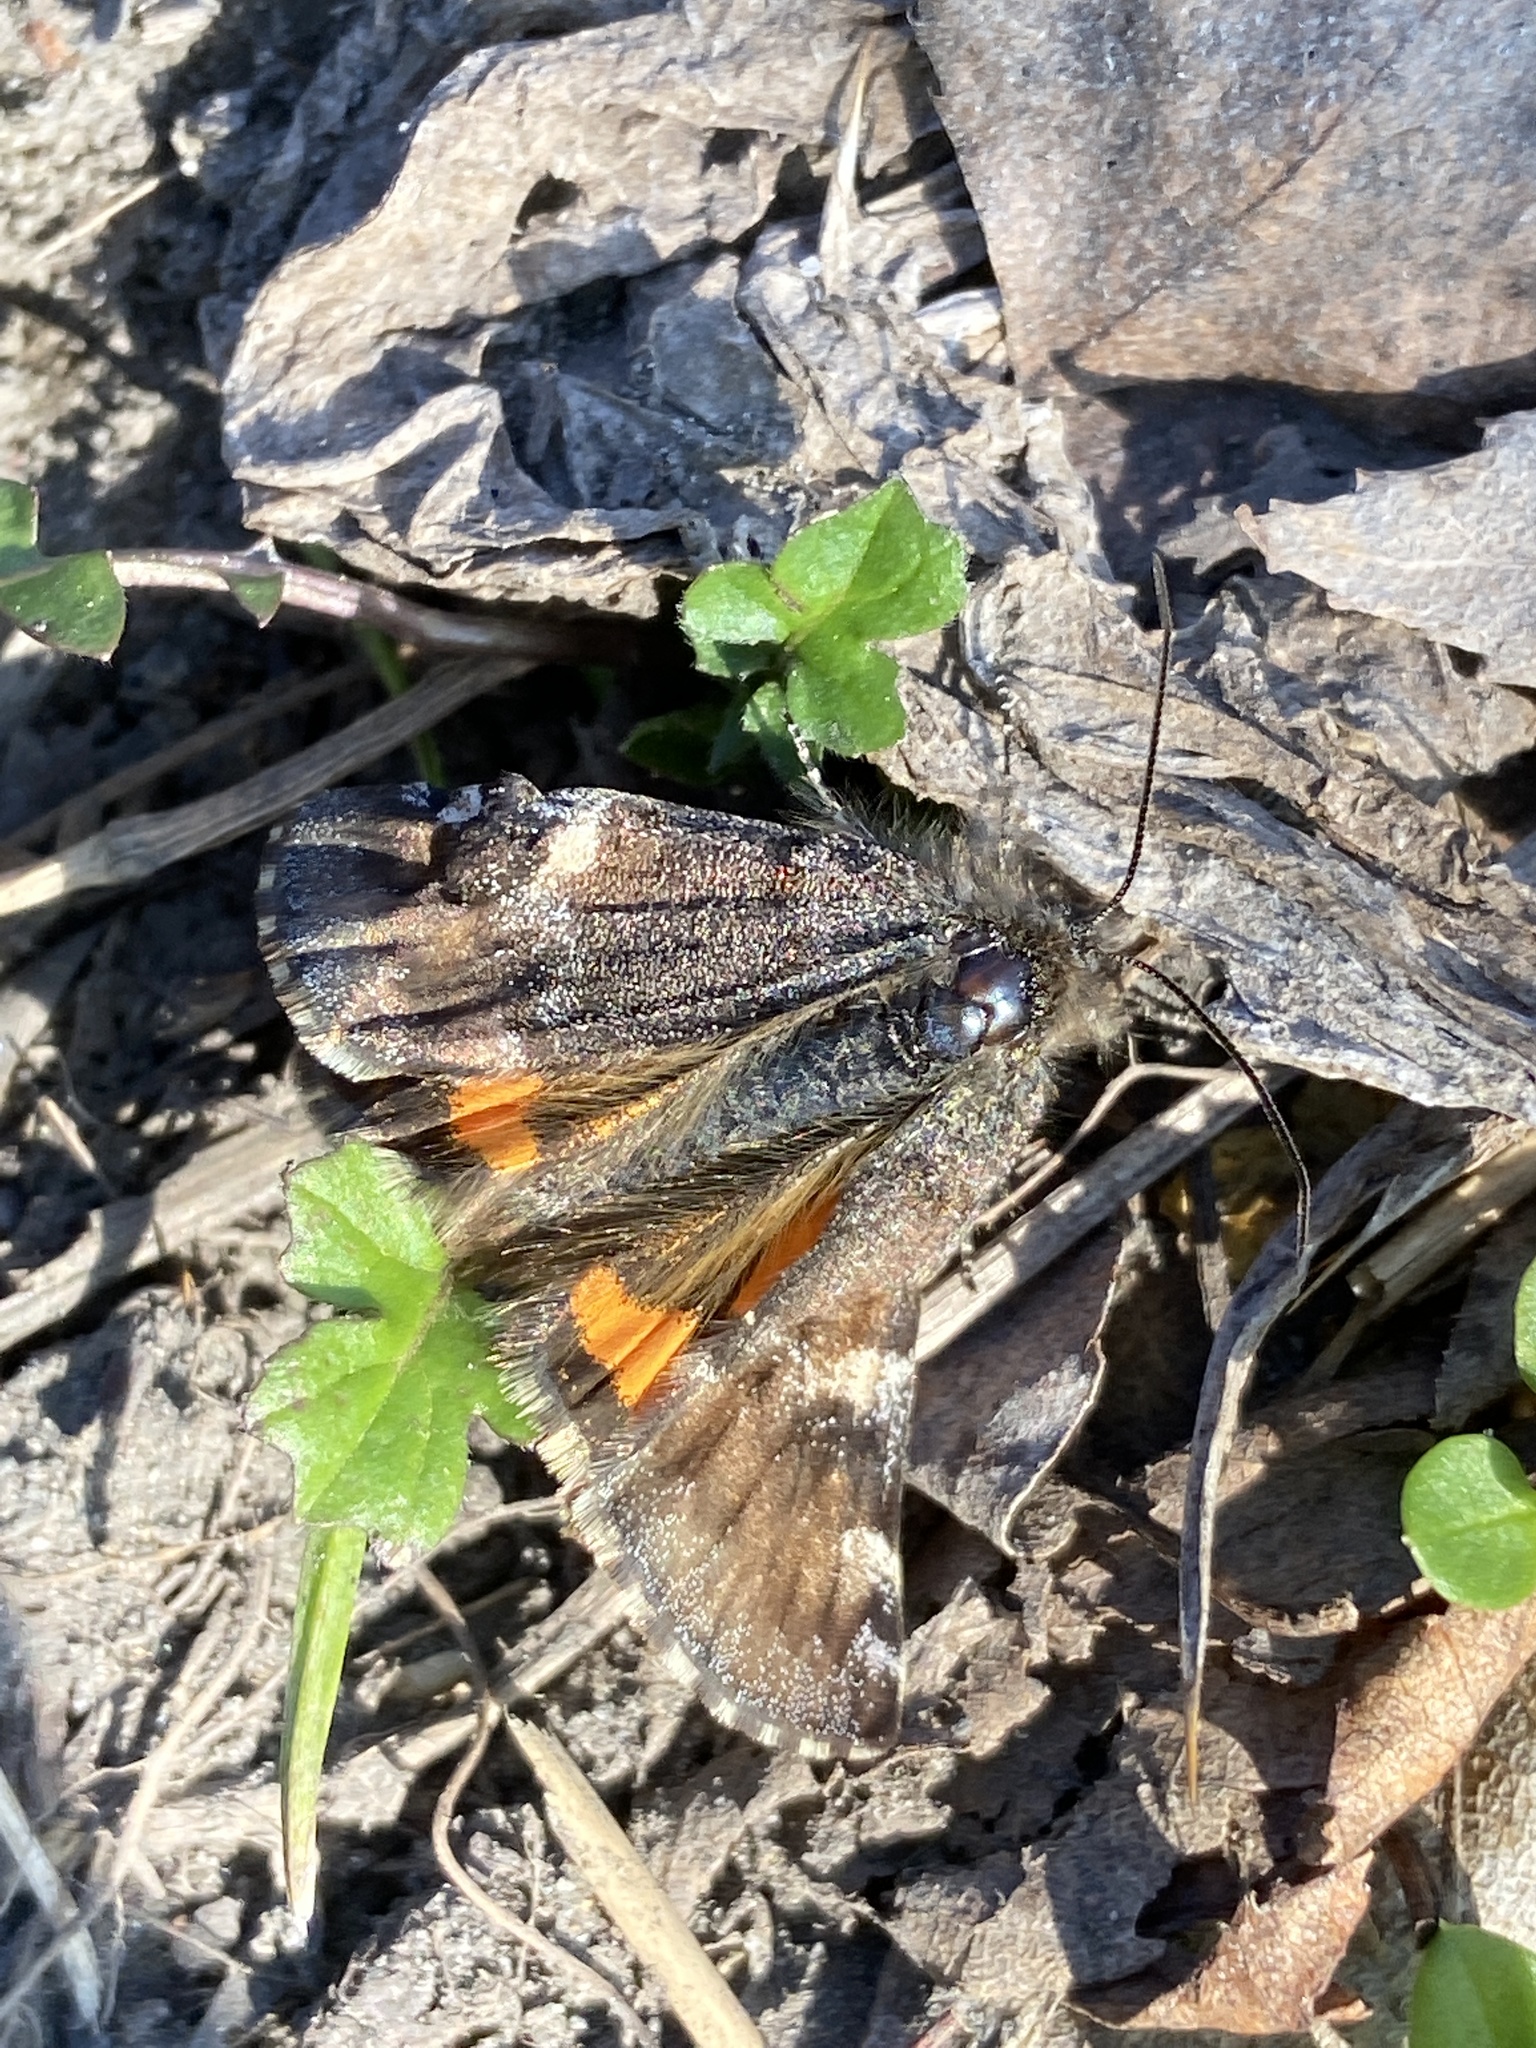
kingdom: Animalia
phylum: Arthropoda
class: Insecta
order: Lepidoptera
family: Geometridae
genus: Archiearis
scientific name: Archiearis parthenias
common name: Orange underwing
